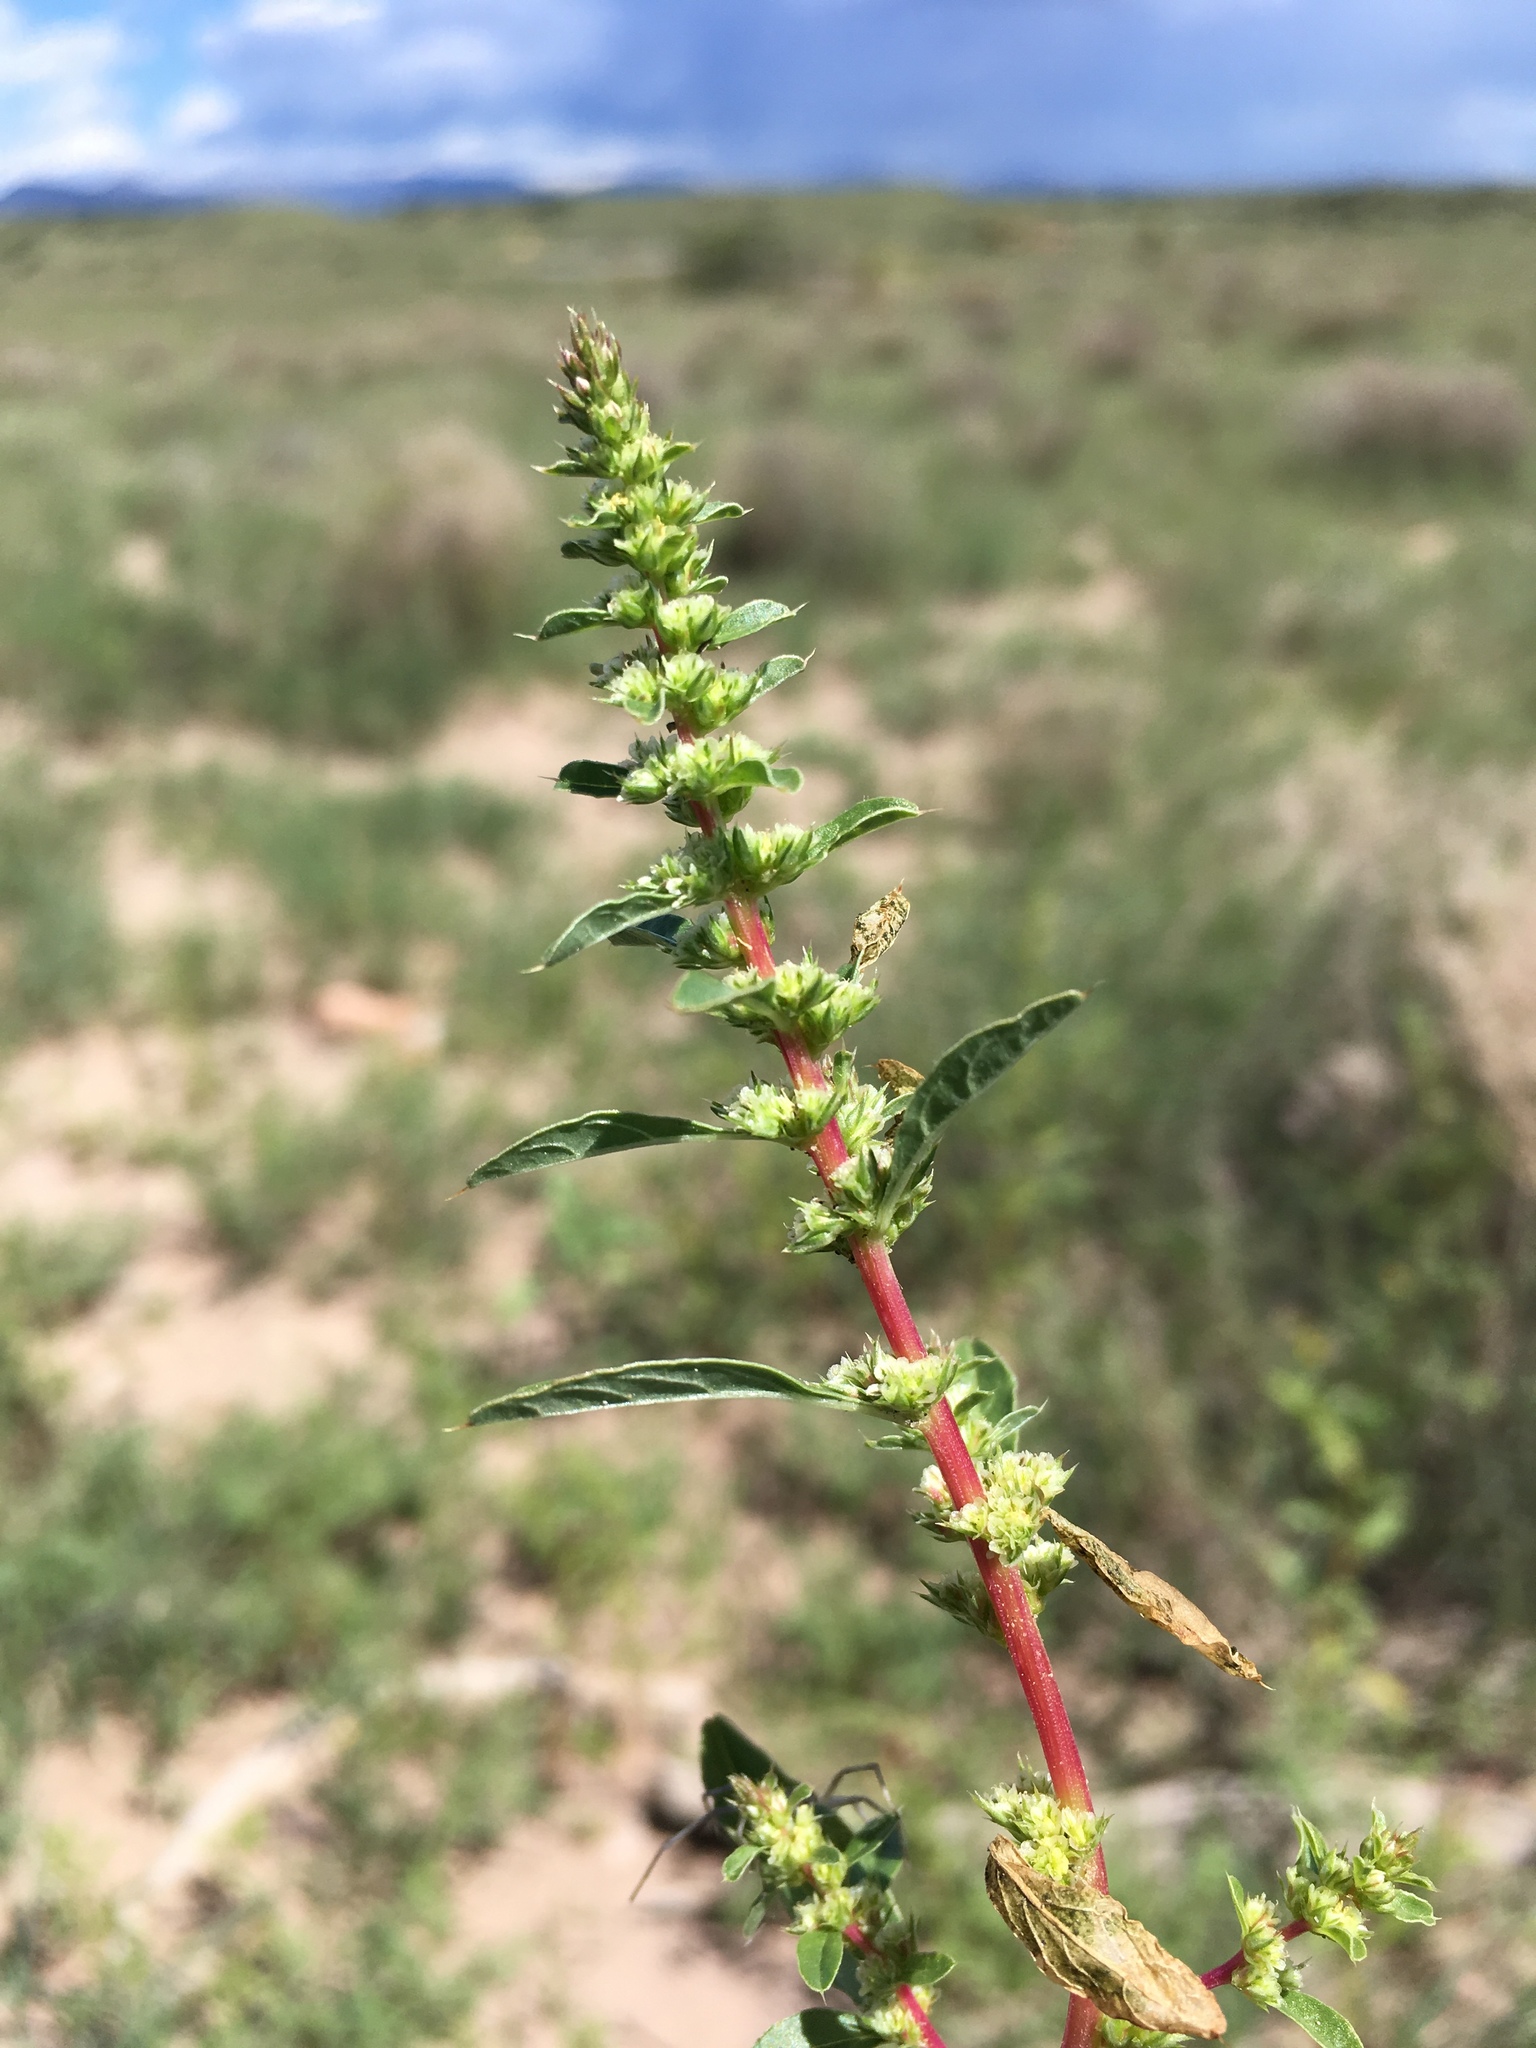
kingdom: Plantae
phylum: Tracheophyta
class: Magnoliopsida
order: Caryophyllales
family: Amaranthaceae
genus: Amaranthus
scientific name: Amaranthus torreyi
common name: Bigelow's amaranth
